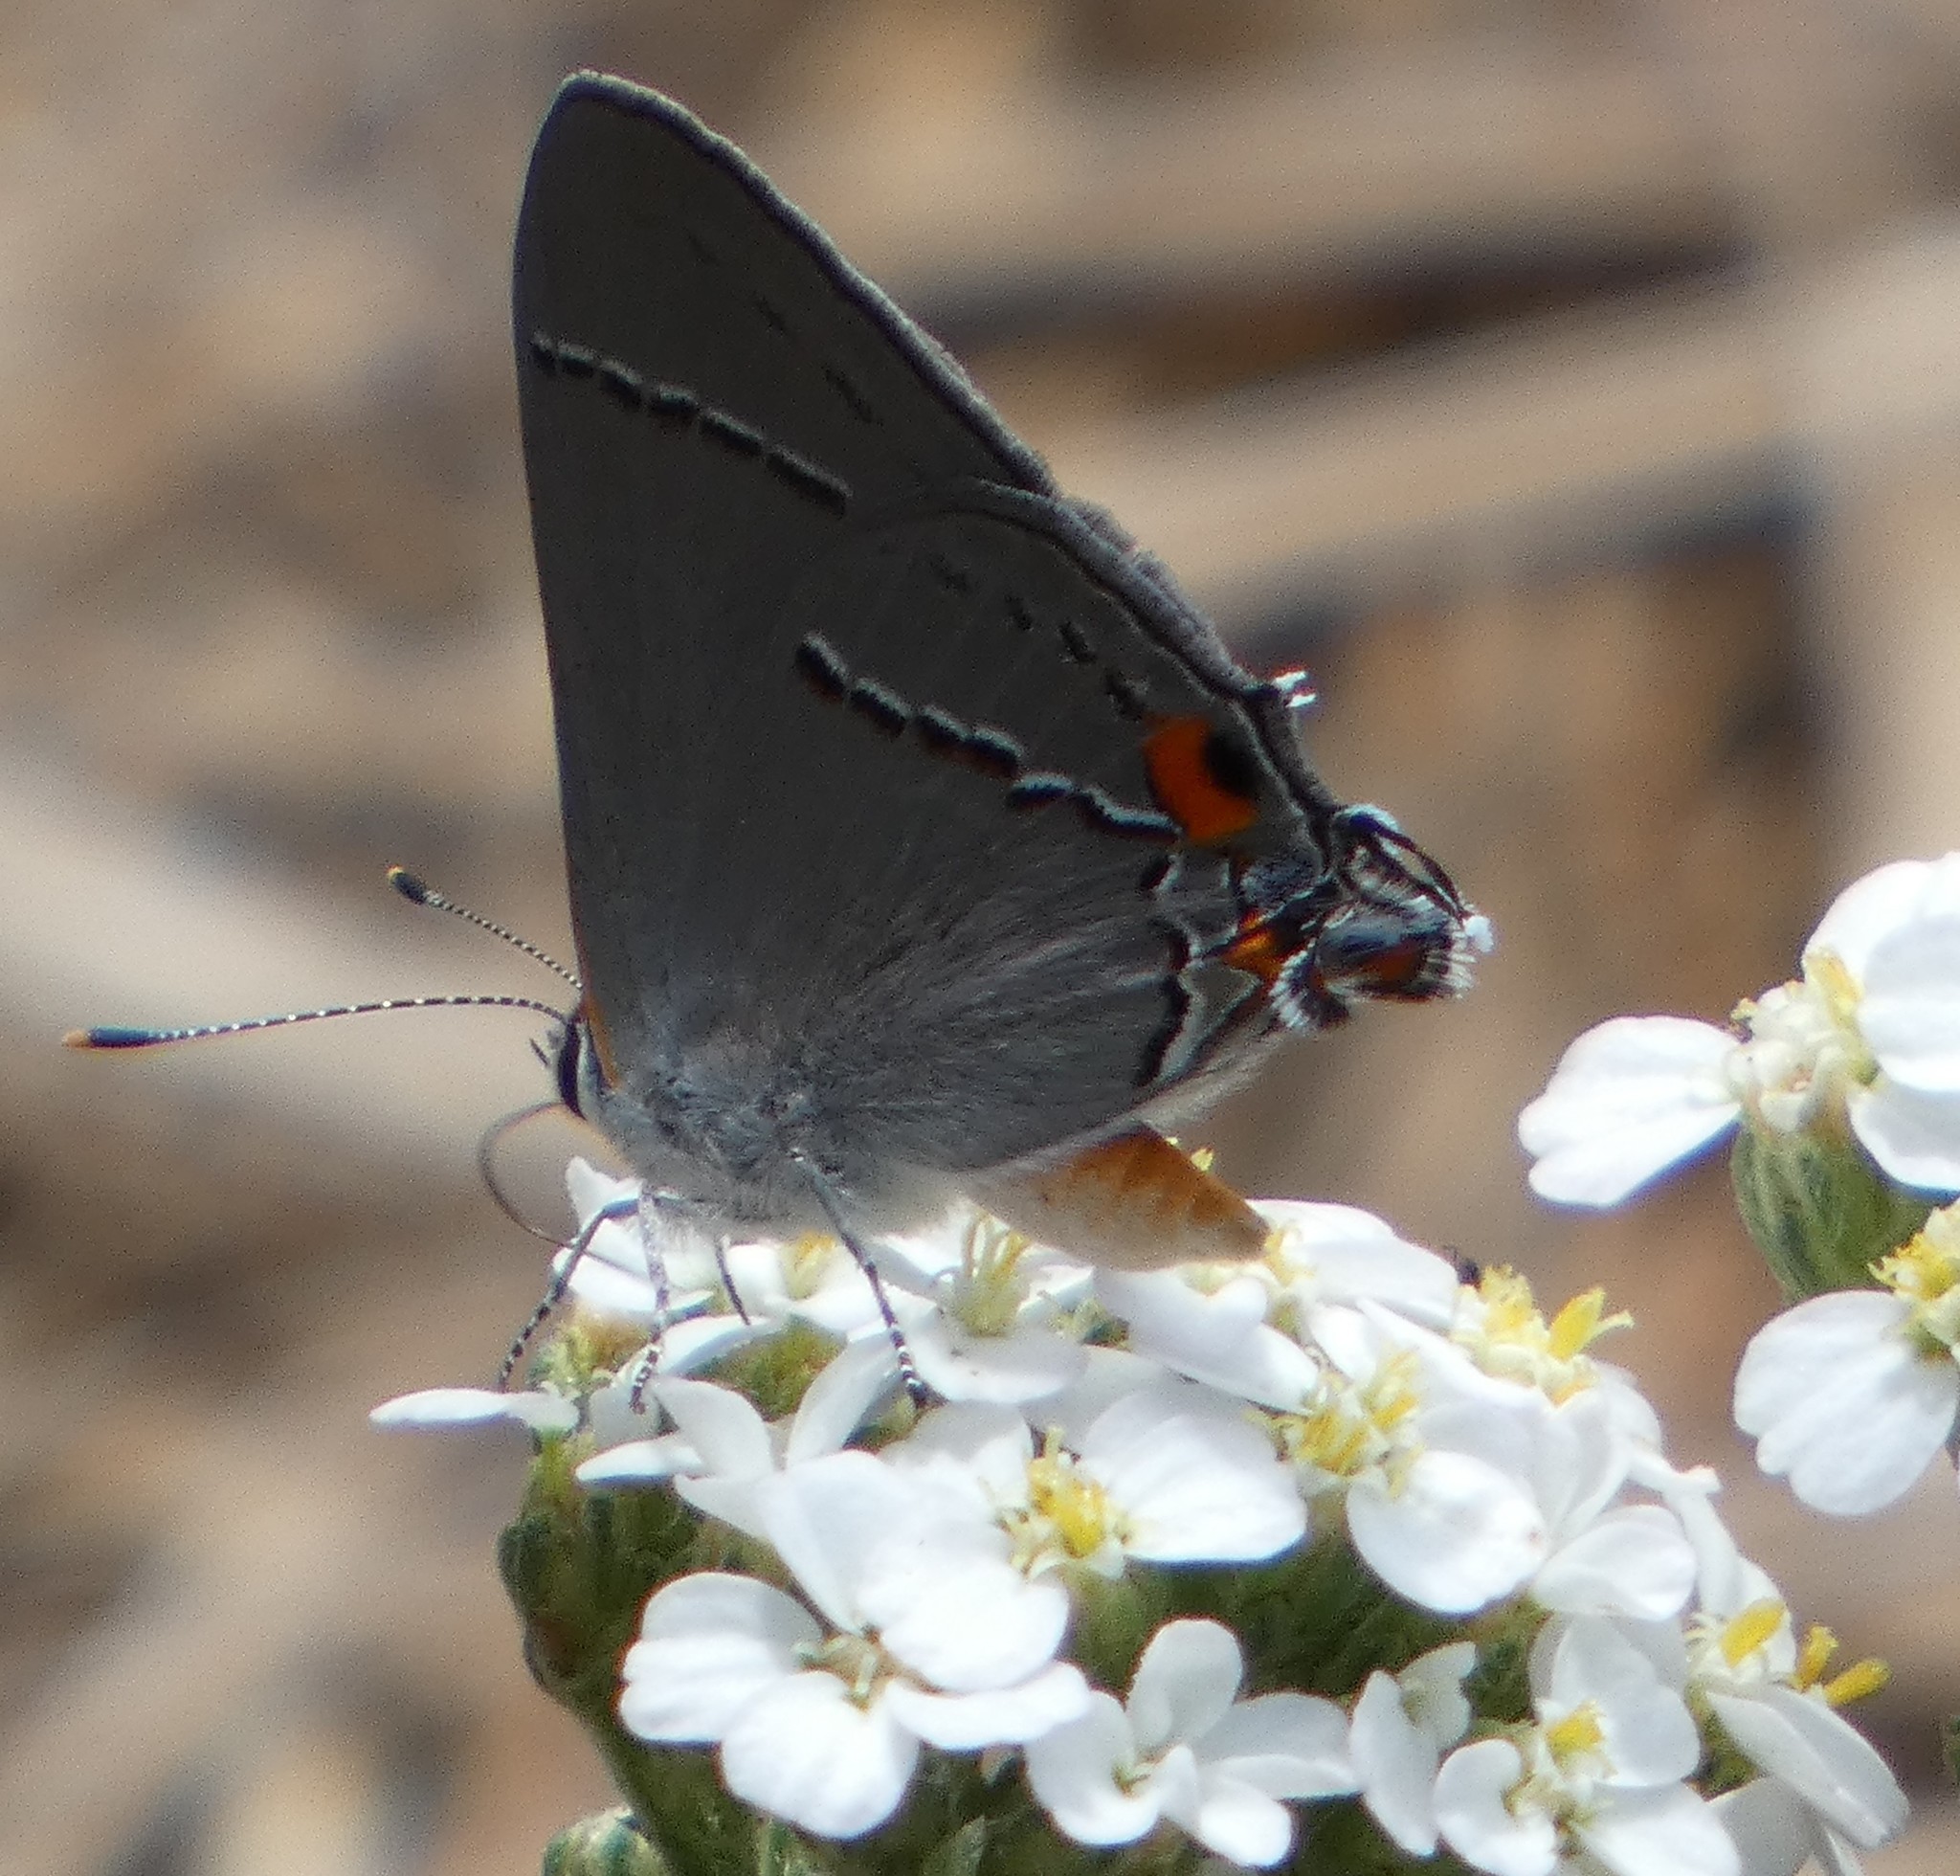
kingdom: Animalia
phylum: Arthropoda
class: Insecta
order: Lepidoptera
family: Lycaenidae
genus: Strymon
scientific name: Strymon melinus
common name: Gray hairstreak
